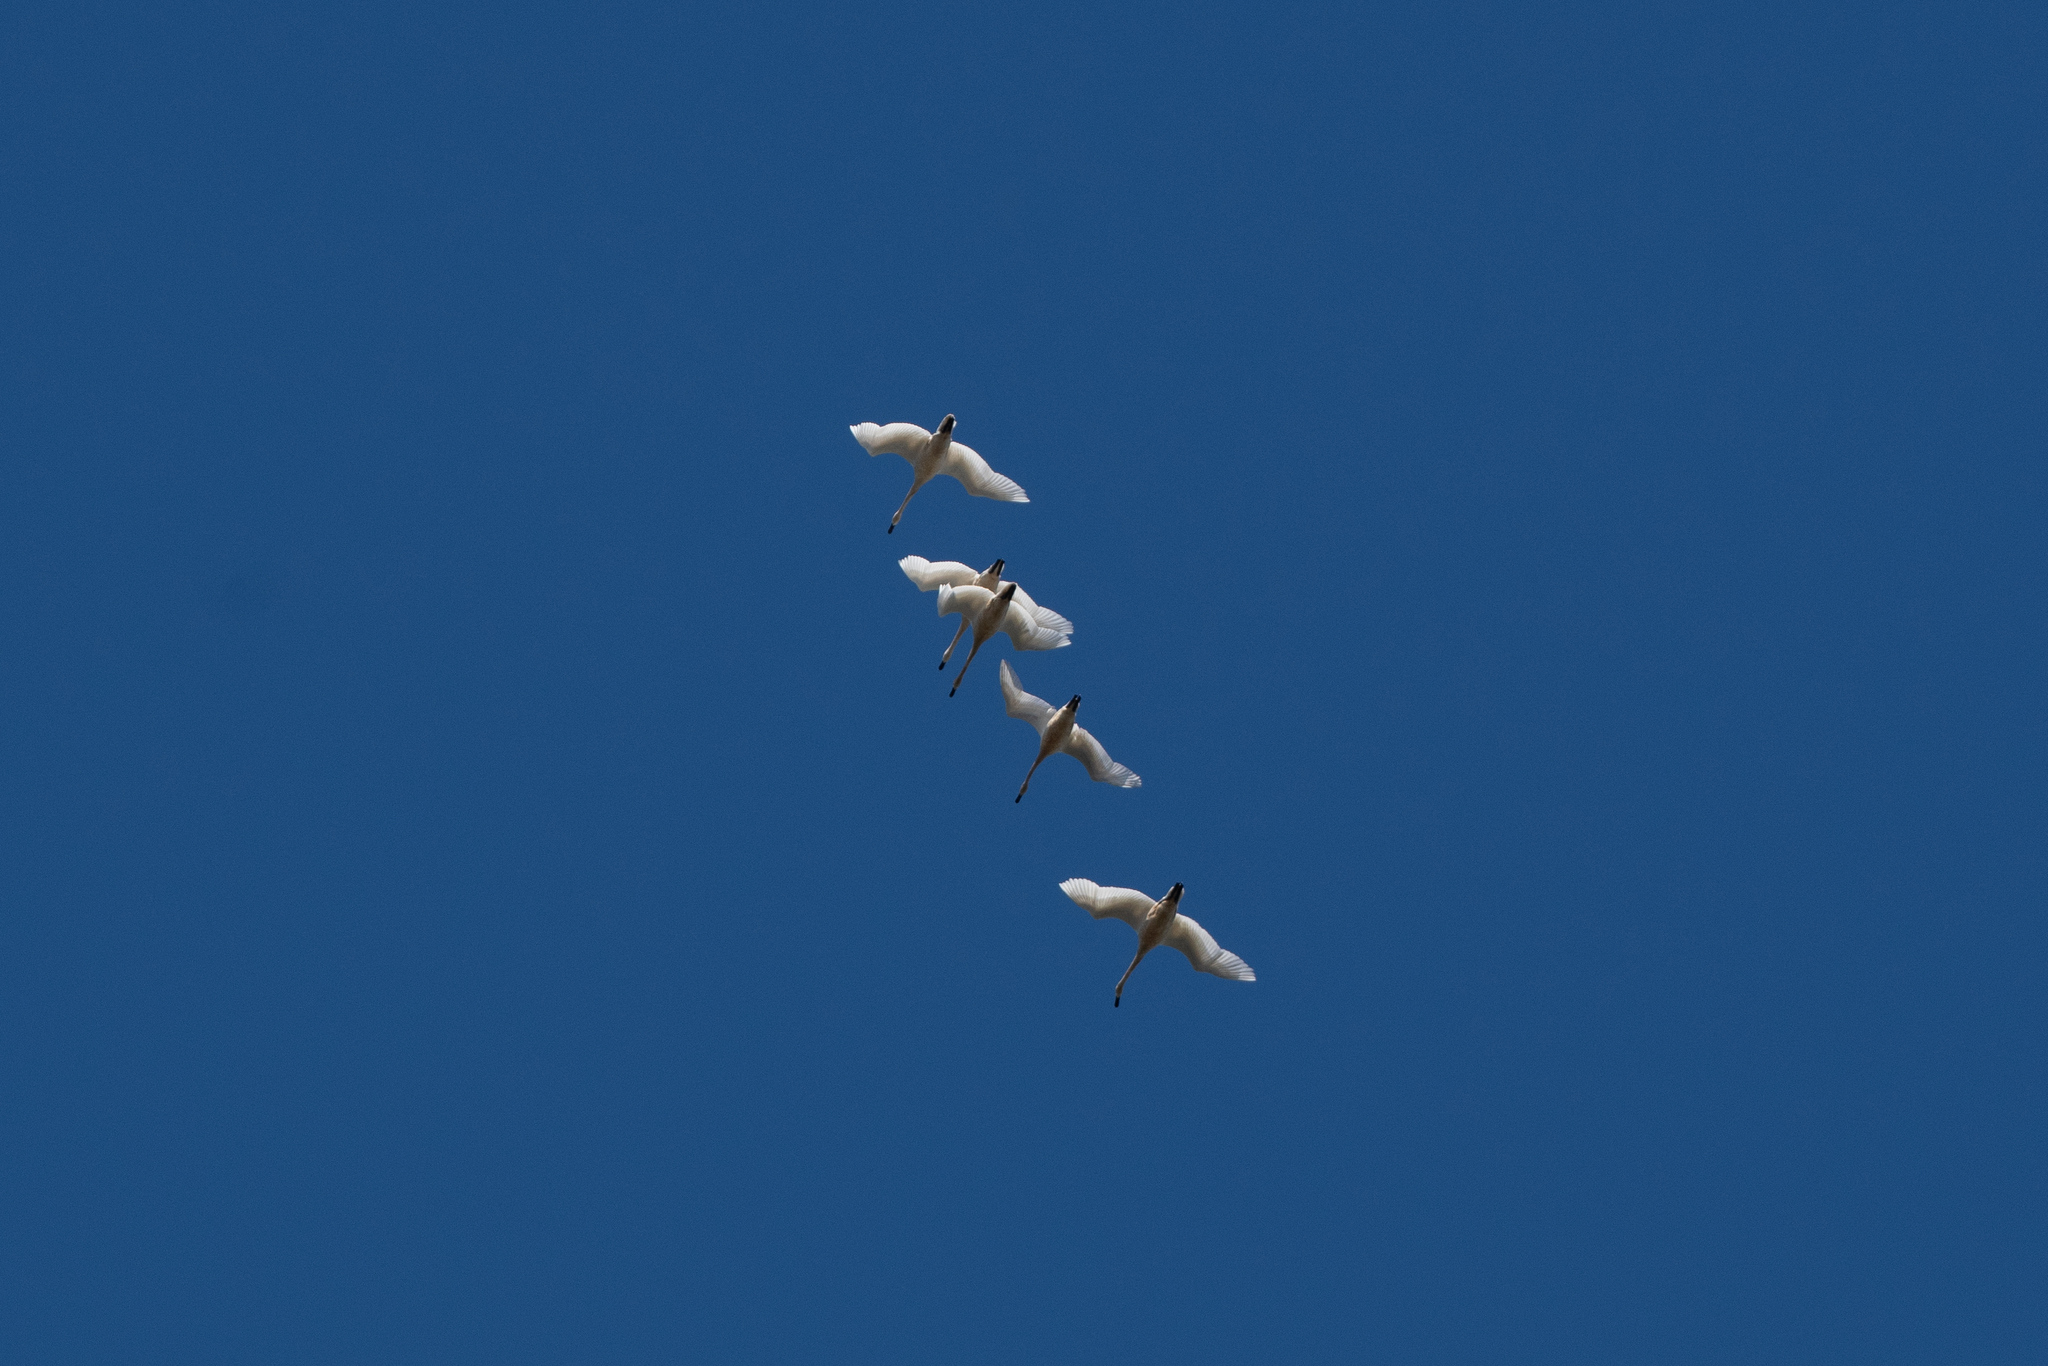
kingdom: Animalia
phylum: Chordata
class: Aves
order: Anseriformes
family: Anatidae
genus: Cygnus
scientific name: Cygnus columbianus
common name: Tundra swan
